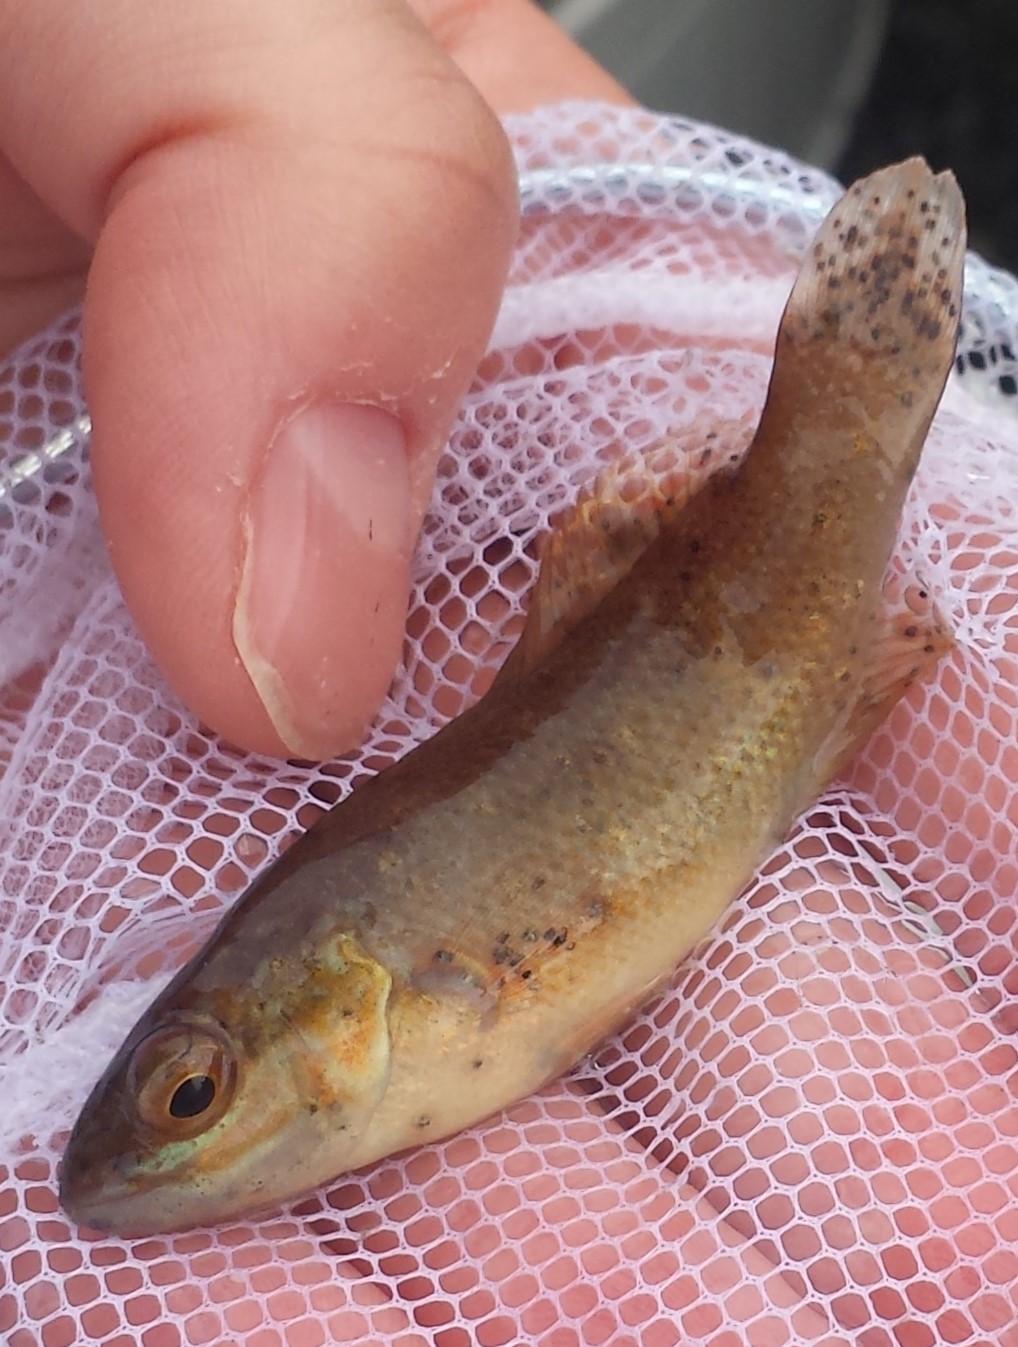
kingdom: Animalia
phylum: Chordata
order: Perciformes
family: Labridae
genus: Tautogolabrus
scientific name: Tautogolabrus adspersus
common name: Cunner
